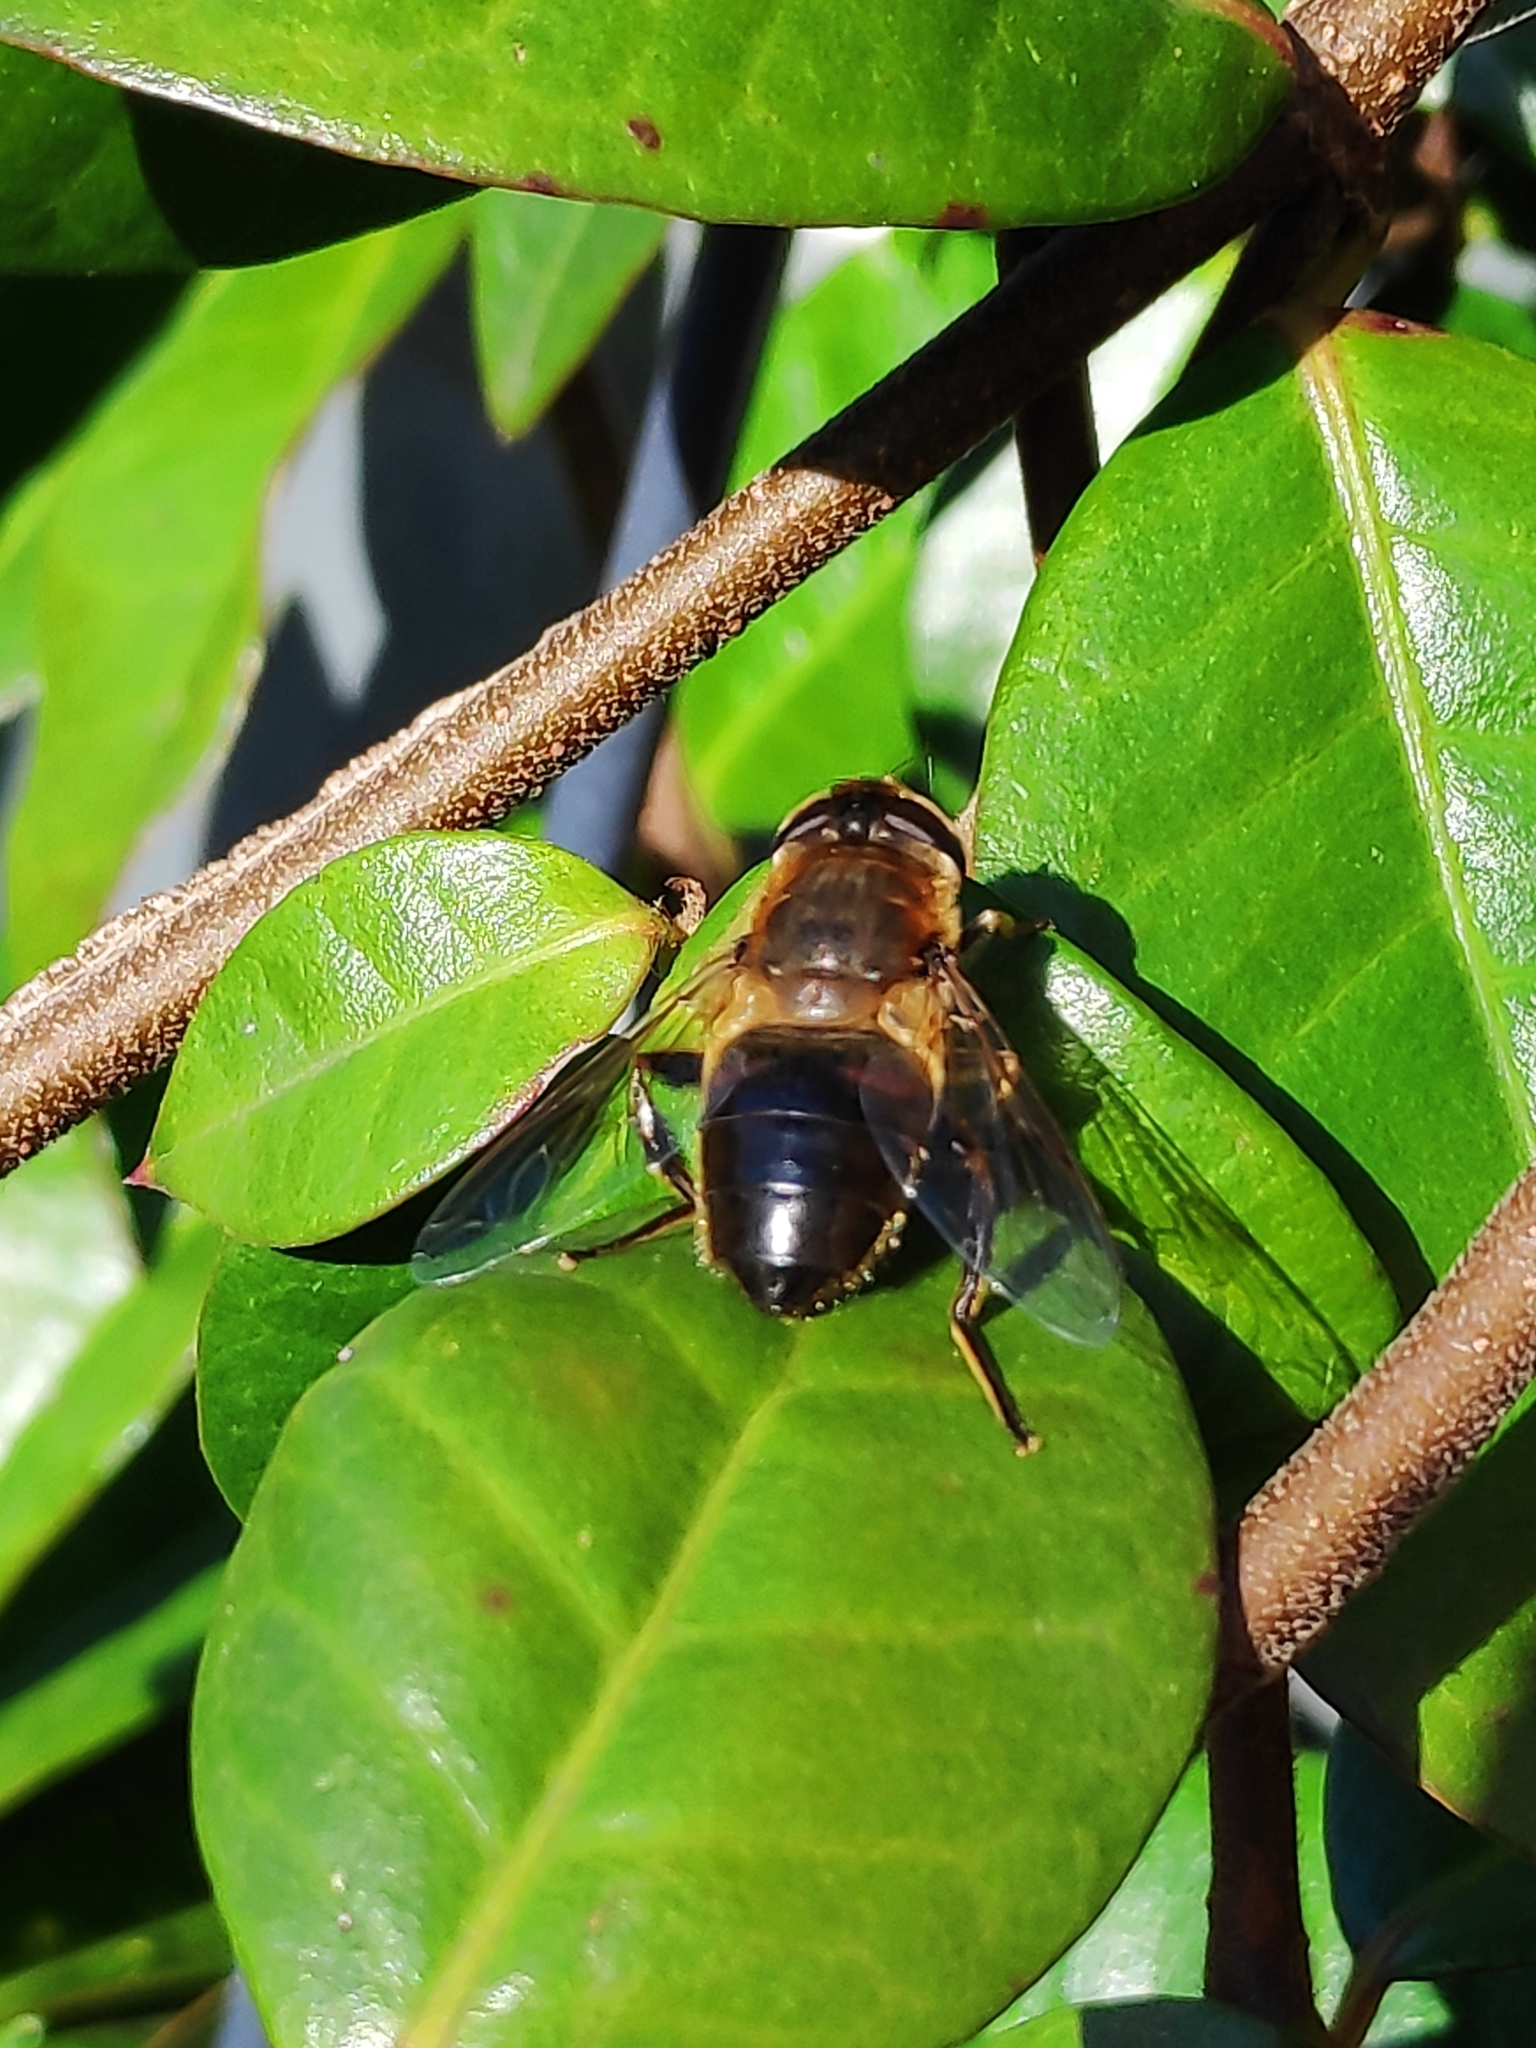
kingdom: Animalia
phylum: Arthropoda
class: Insecta
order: Diptera
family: Syrphidae
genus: Eristalis
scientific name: Eristalis tenax
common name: Drone fly
